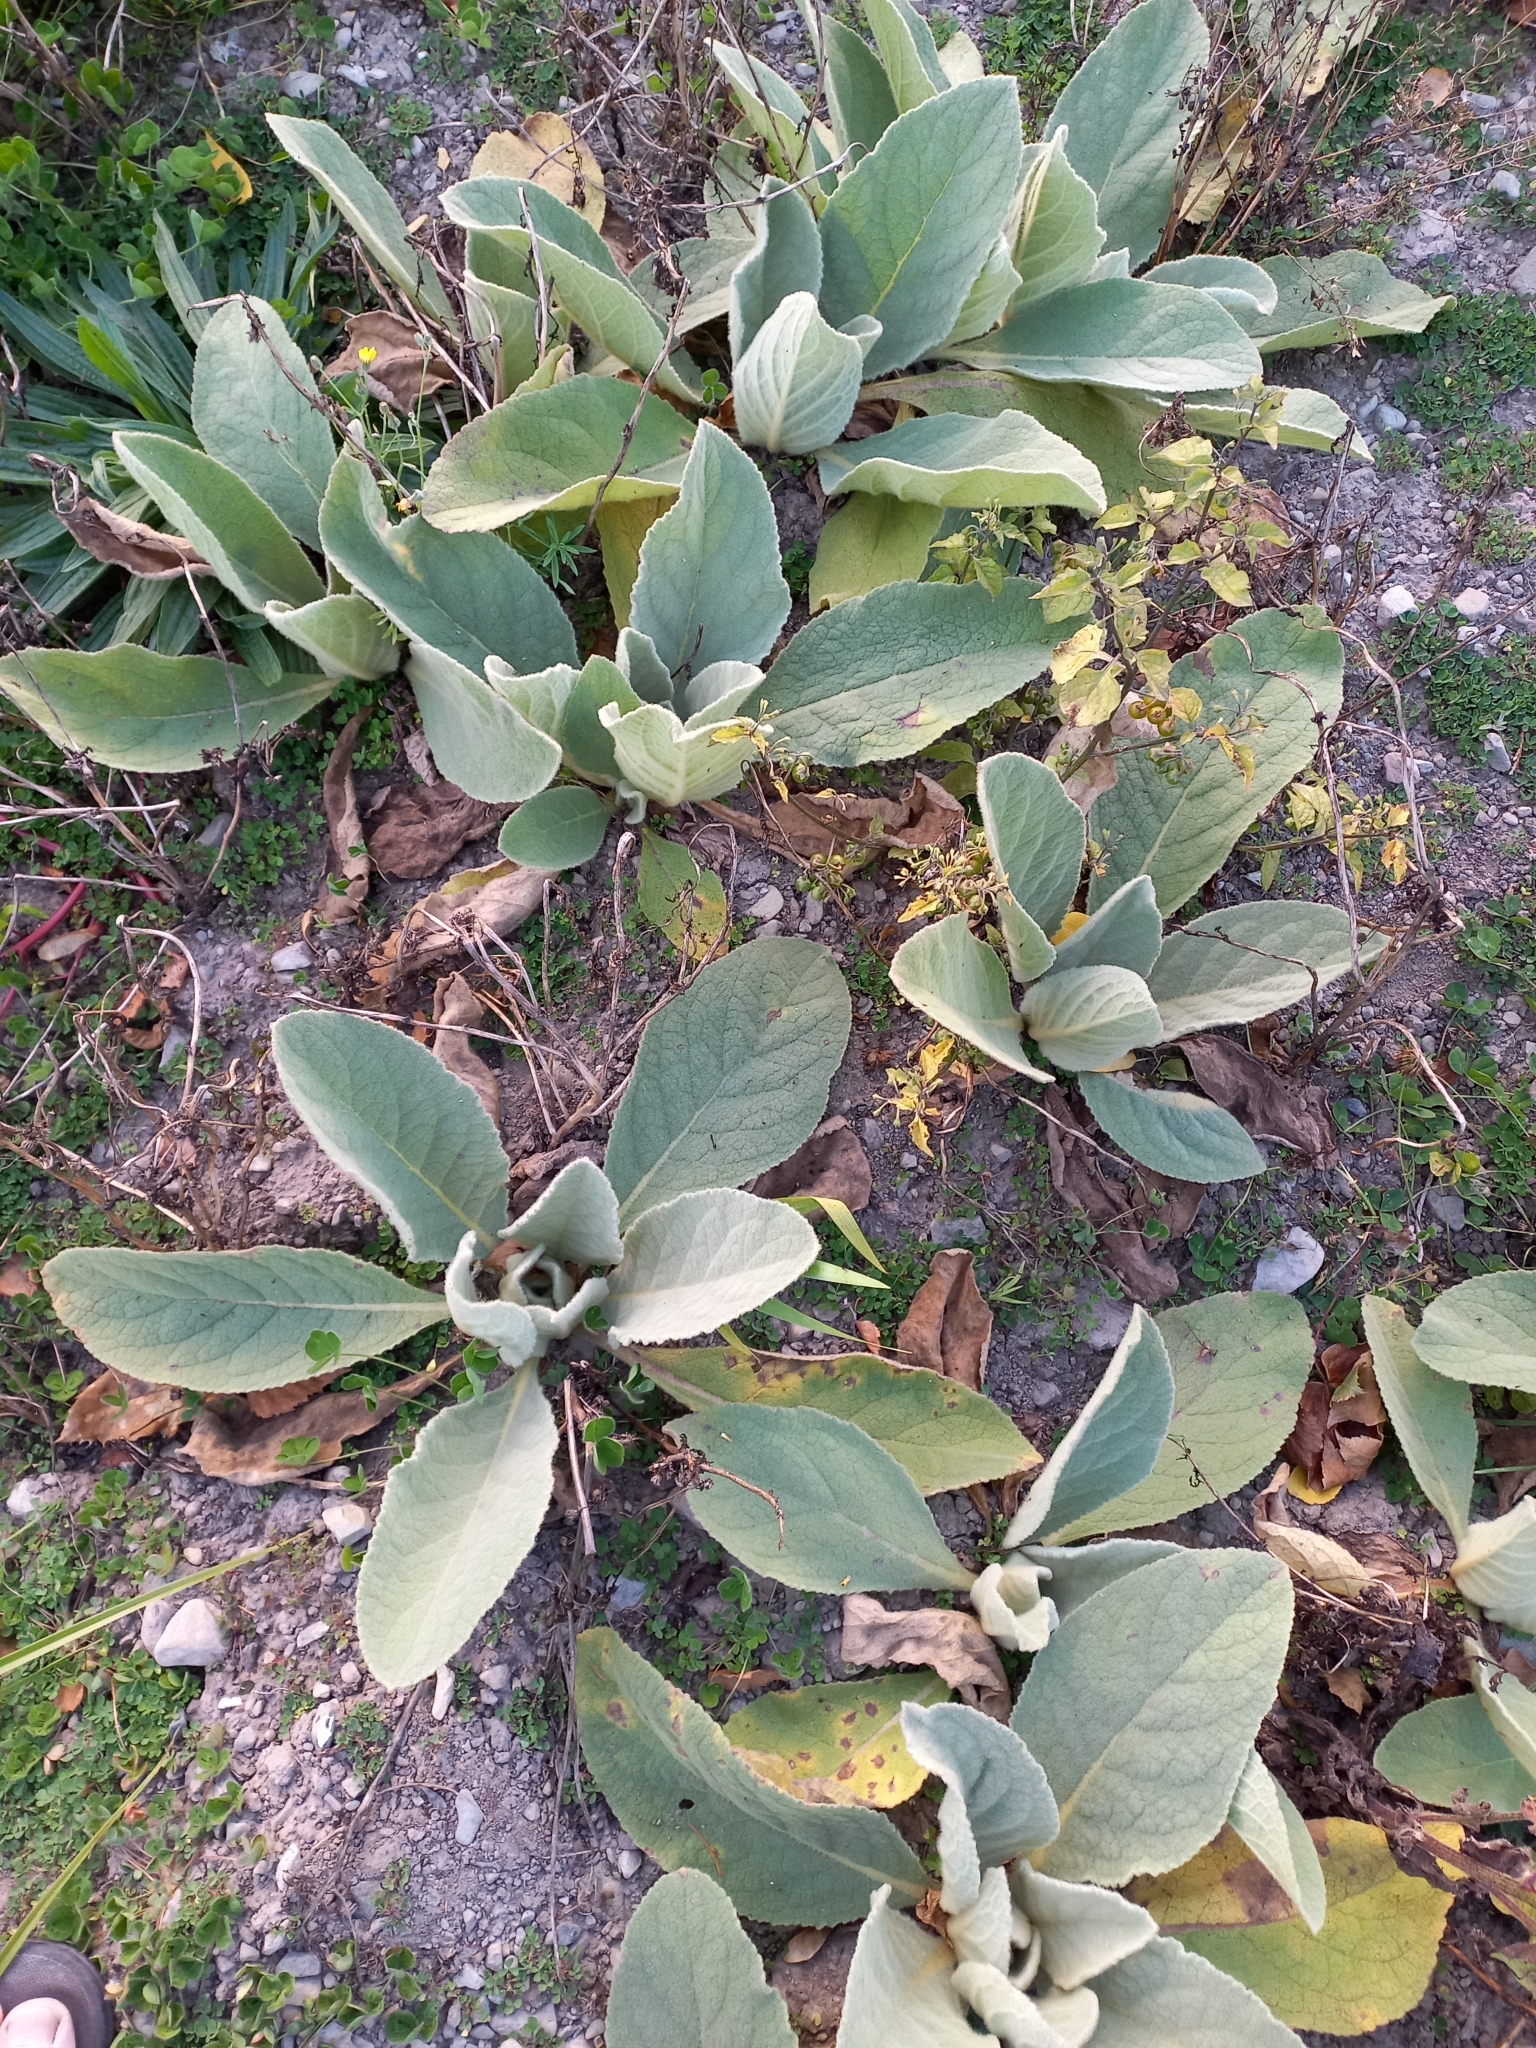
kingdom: Plantae
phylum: Tracheophyta
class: Magnoliopsida
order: Lamiales
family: Scrophulariaceae
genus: Verbascum
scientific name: Verbascum thapsus
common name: Common mullein
